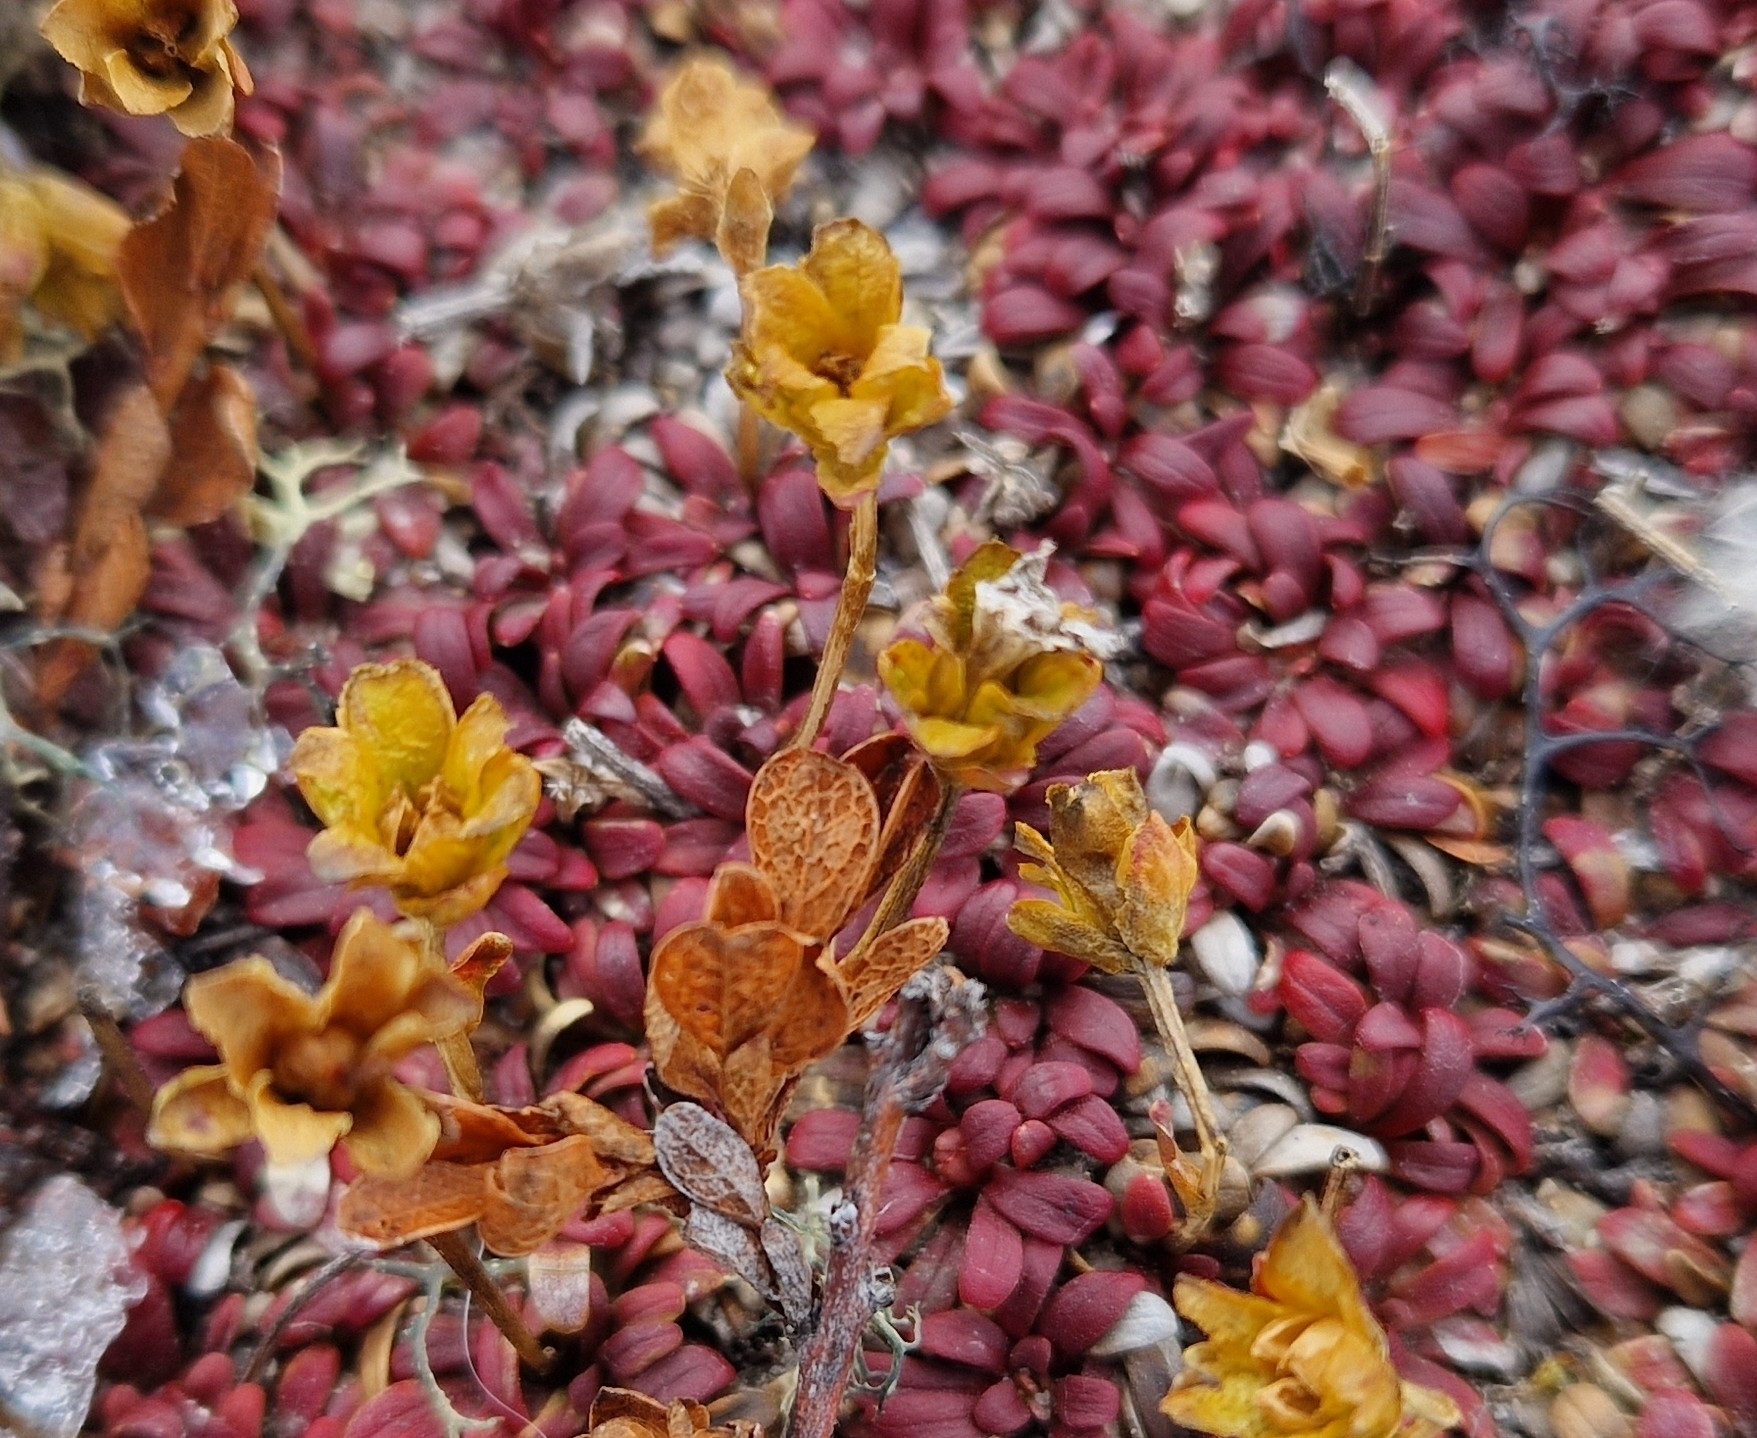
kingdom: Plantae
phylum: Tracheophyta
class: Magnoliopsida
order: Ericales
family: Diapensiaceae
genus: Diapensia
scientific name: Diapensia lapponica
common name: Diapensia
